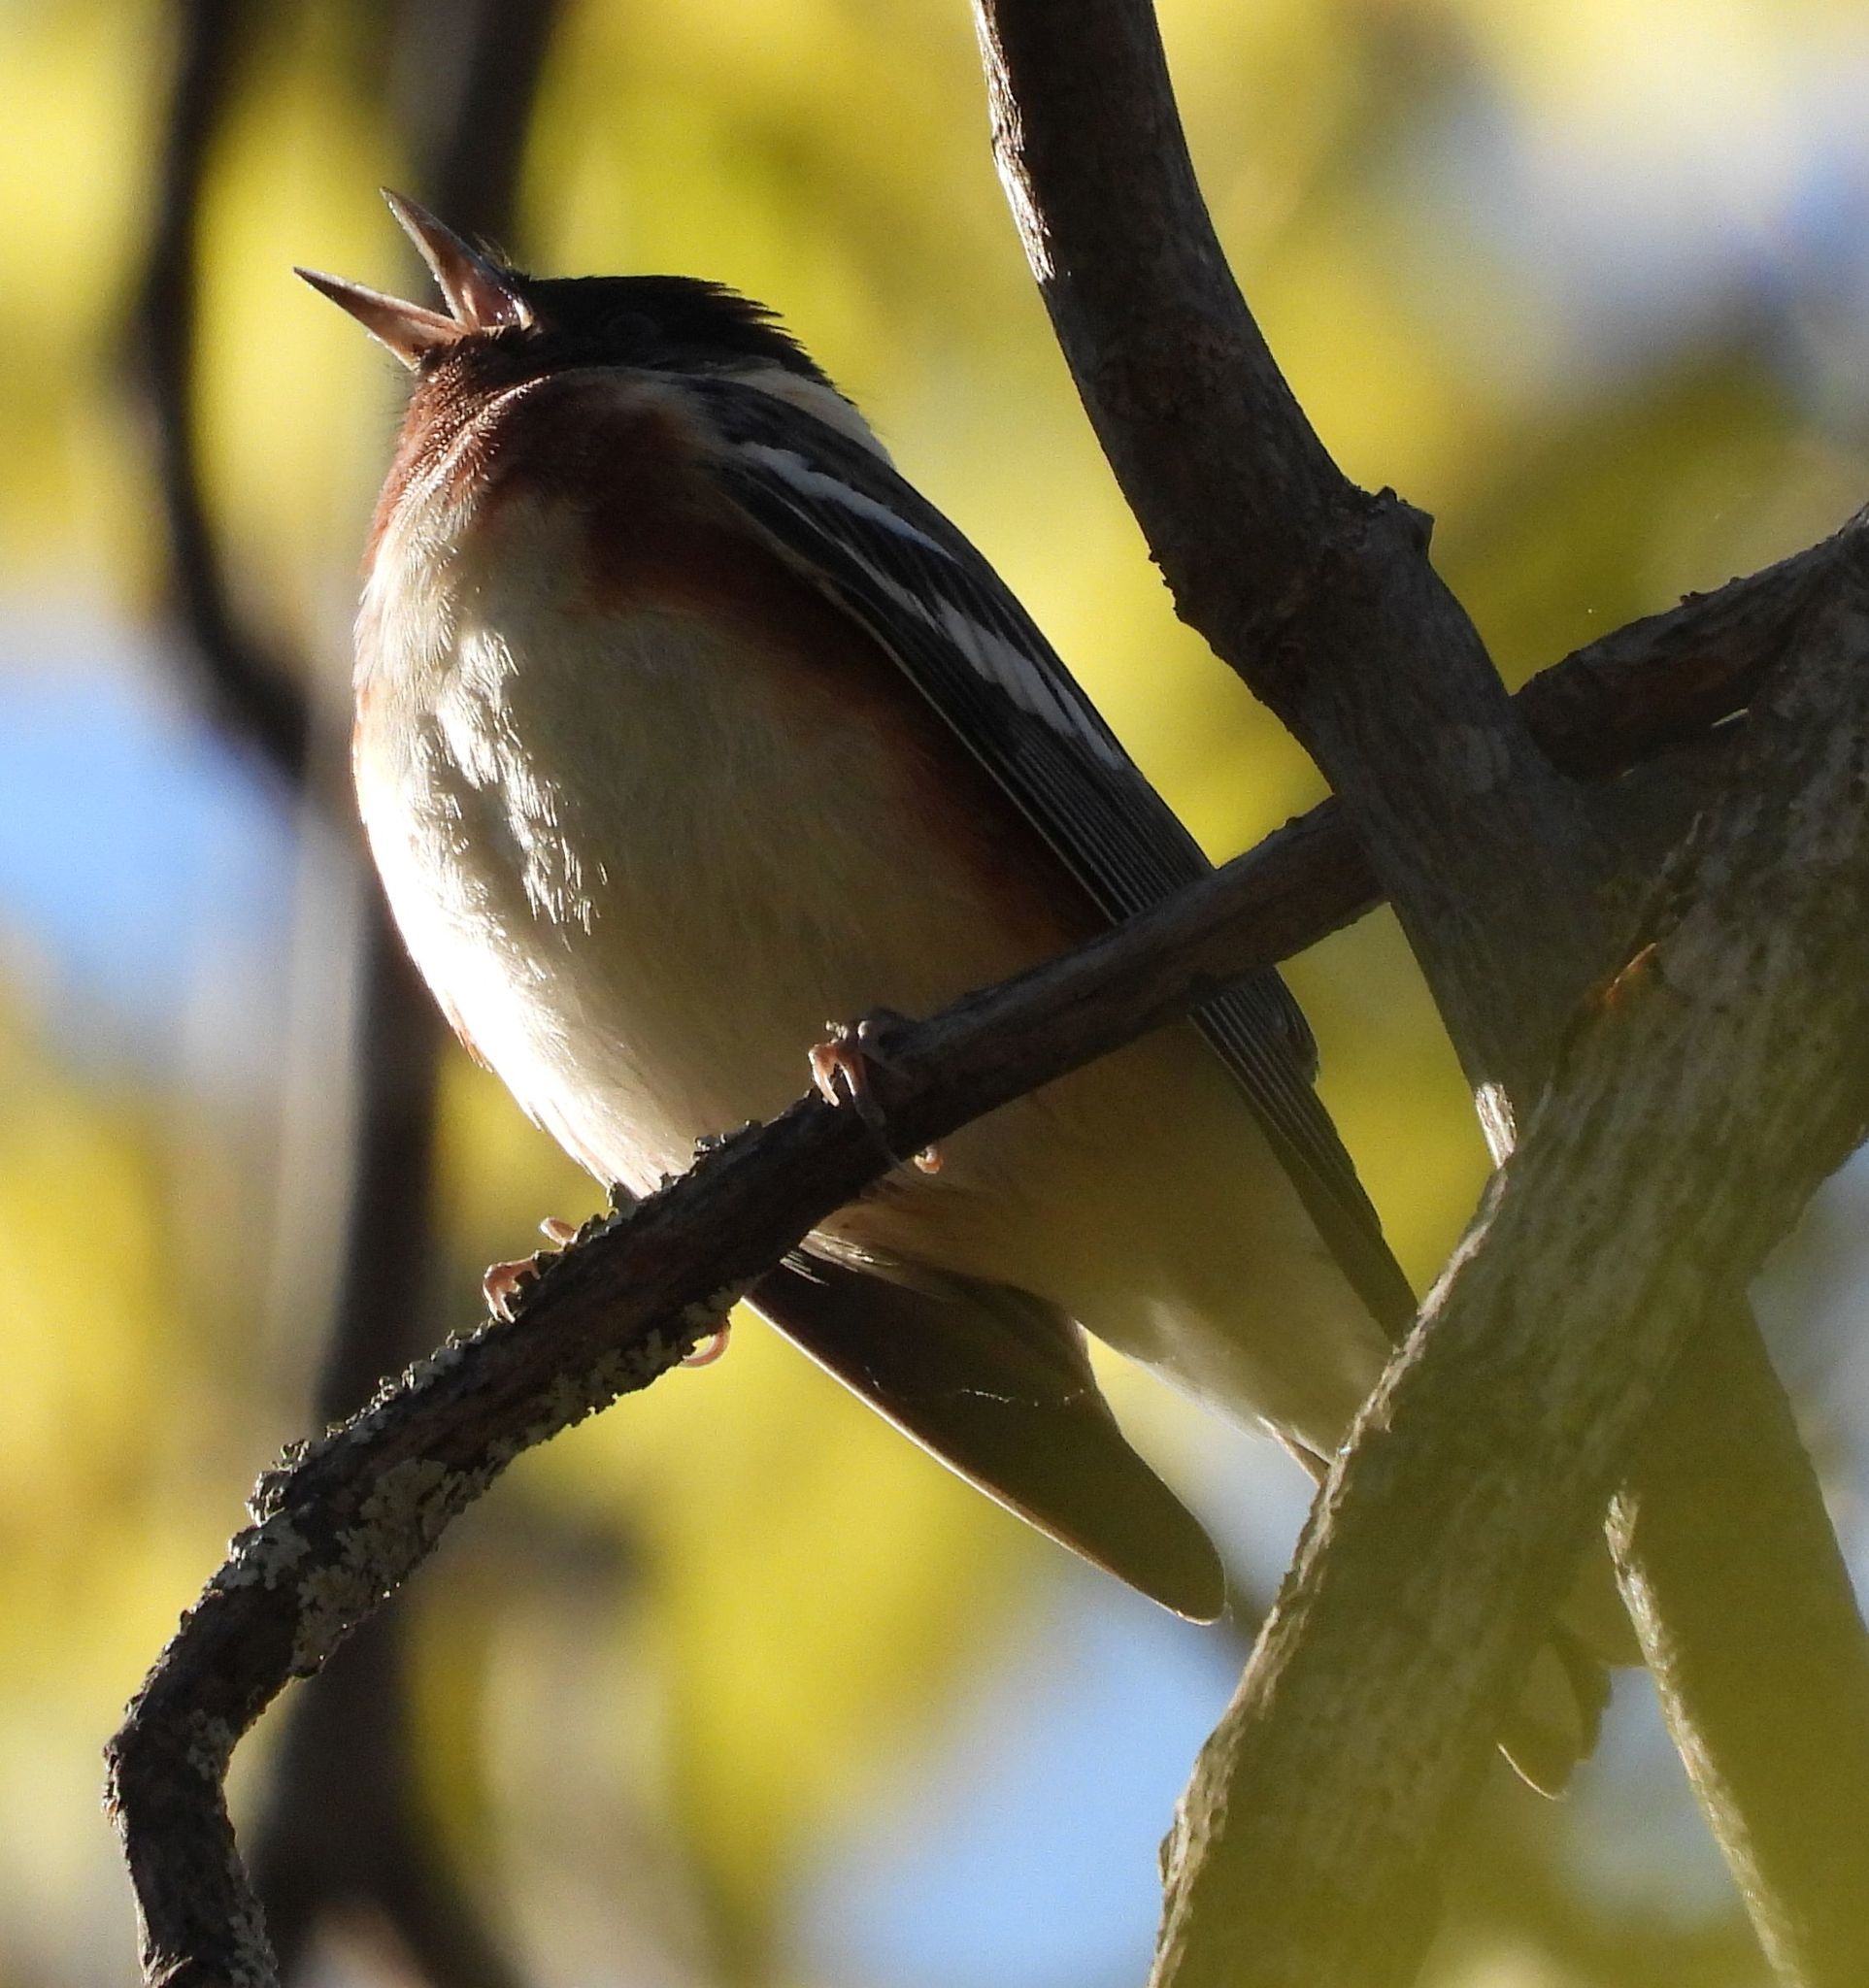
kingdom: Animalia
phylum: Chordata
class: Aves
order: Passeriformes
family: Parulidae
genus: Setophaga
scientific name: Setophaga castanea
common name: Bay-breasted warbler
